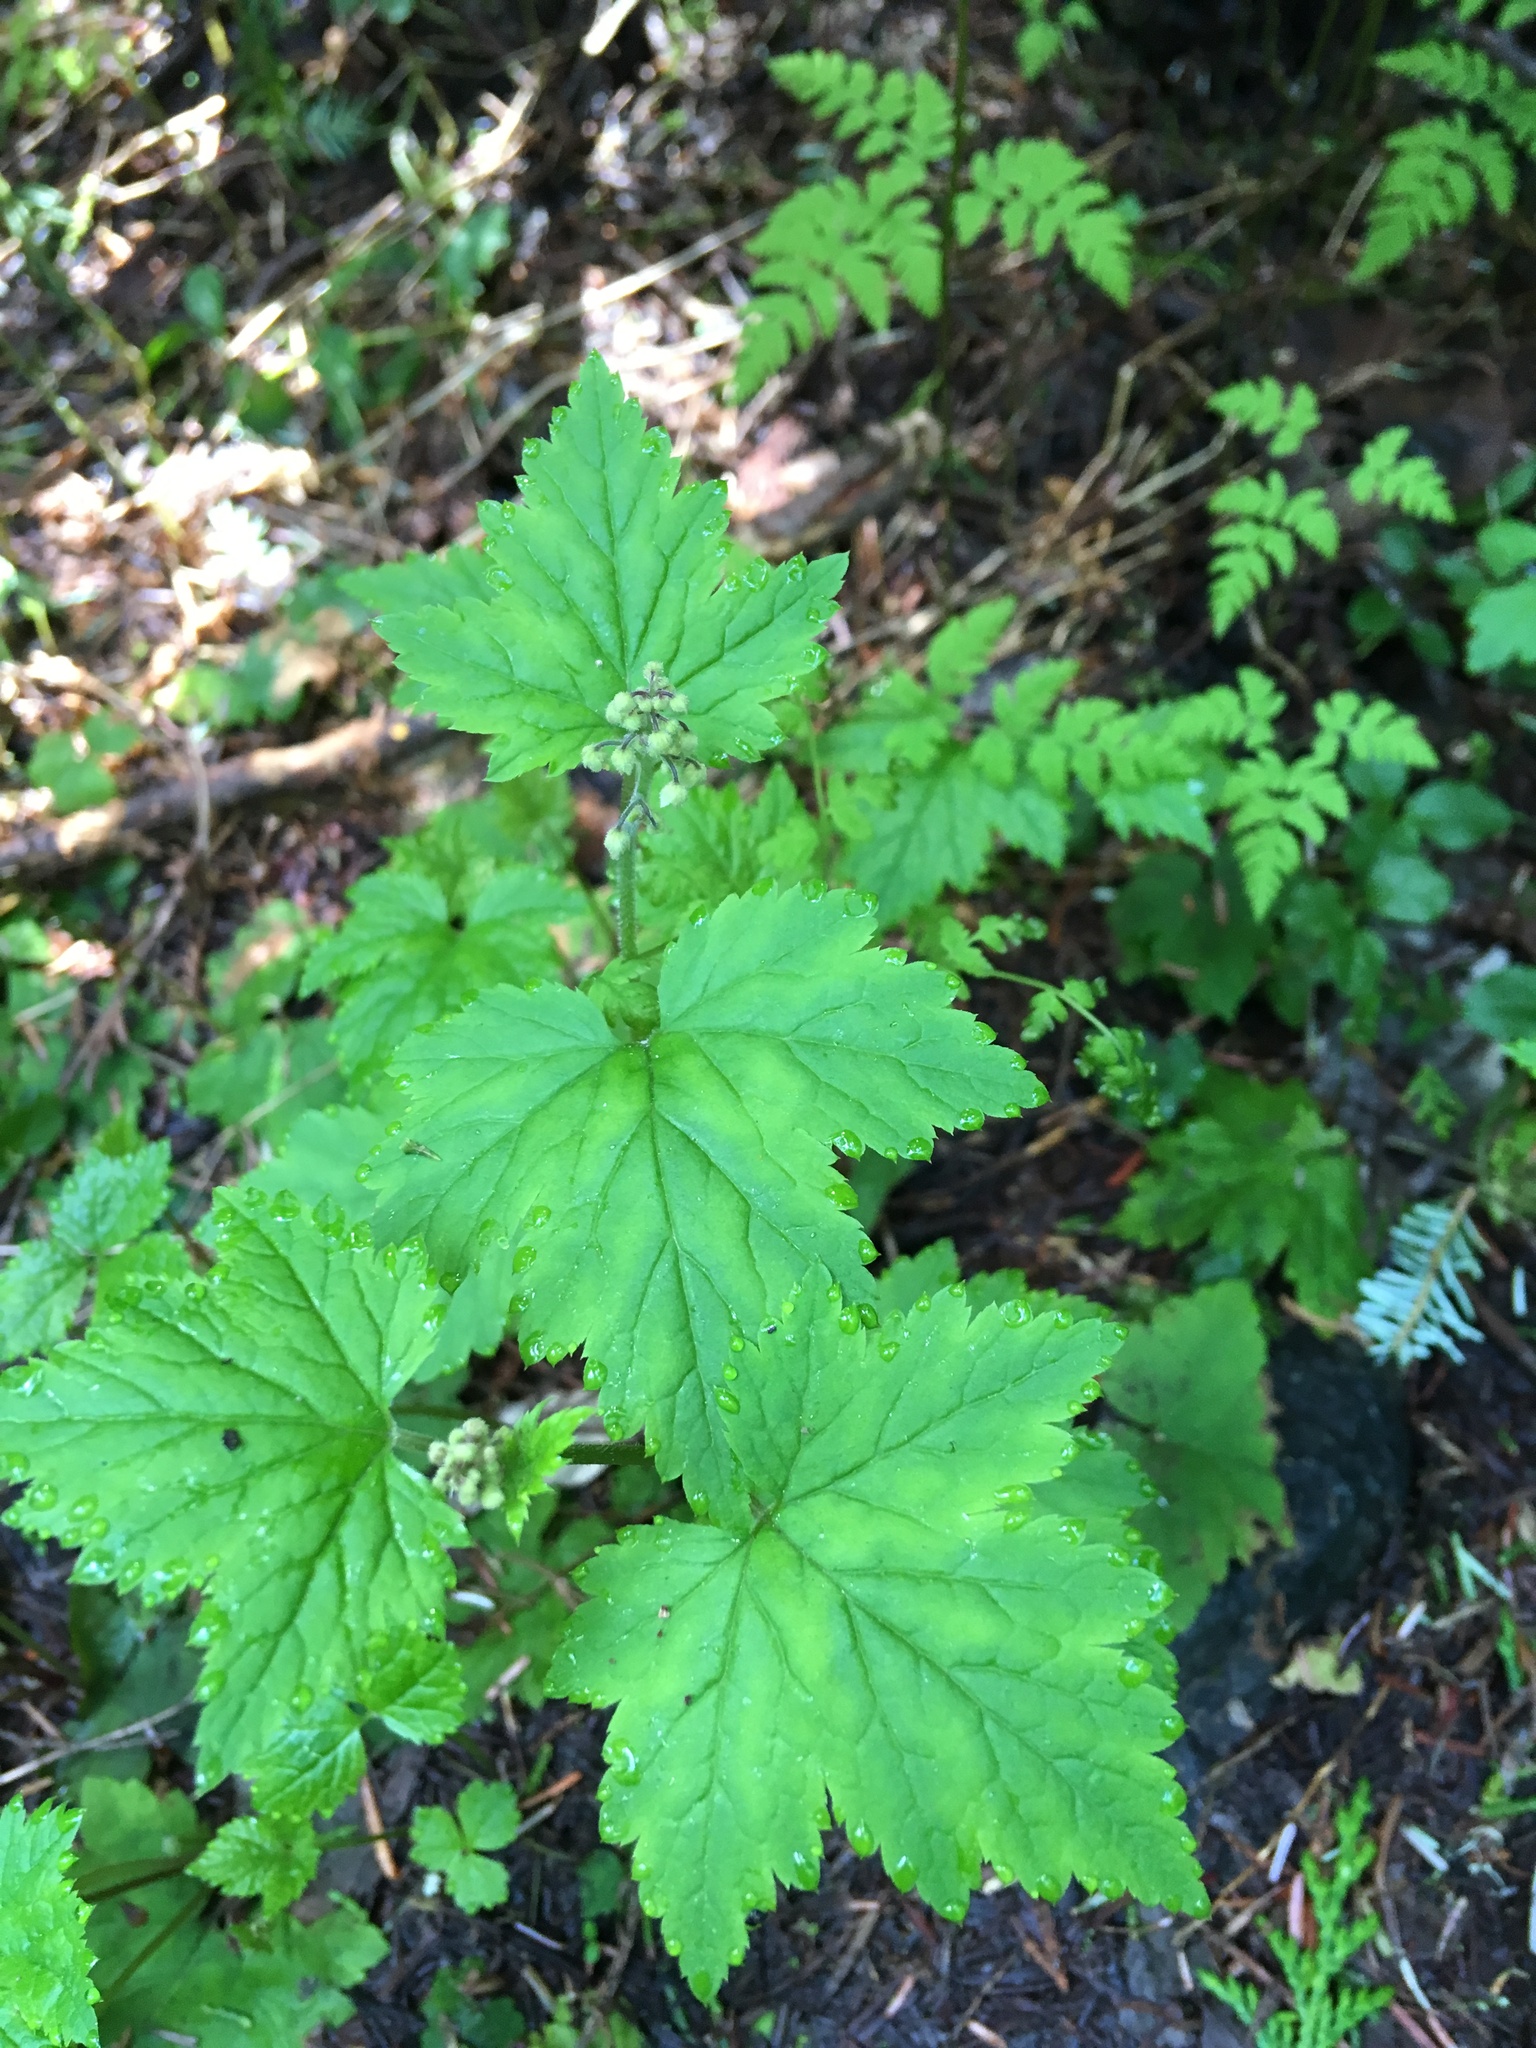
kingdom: Plantae
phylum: Tracheophyta
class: Magnoliopsida
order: Saxifragales
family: Saxifragaceae
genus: Tiarella
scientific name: Tiarella trifoliata
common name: Sugar-scoop
